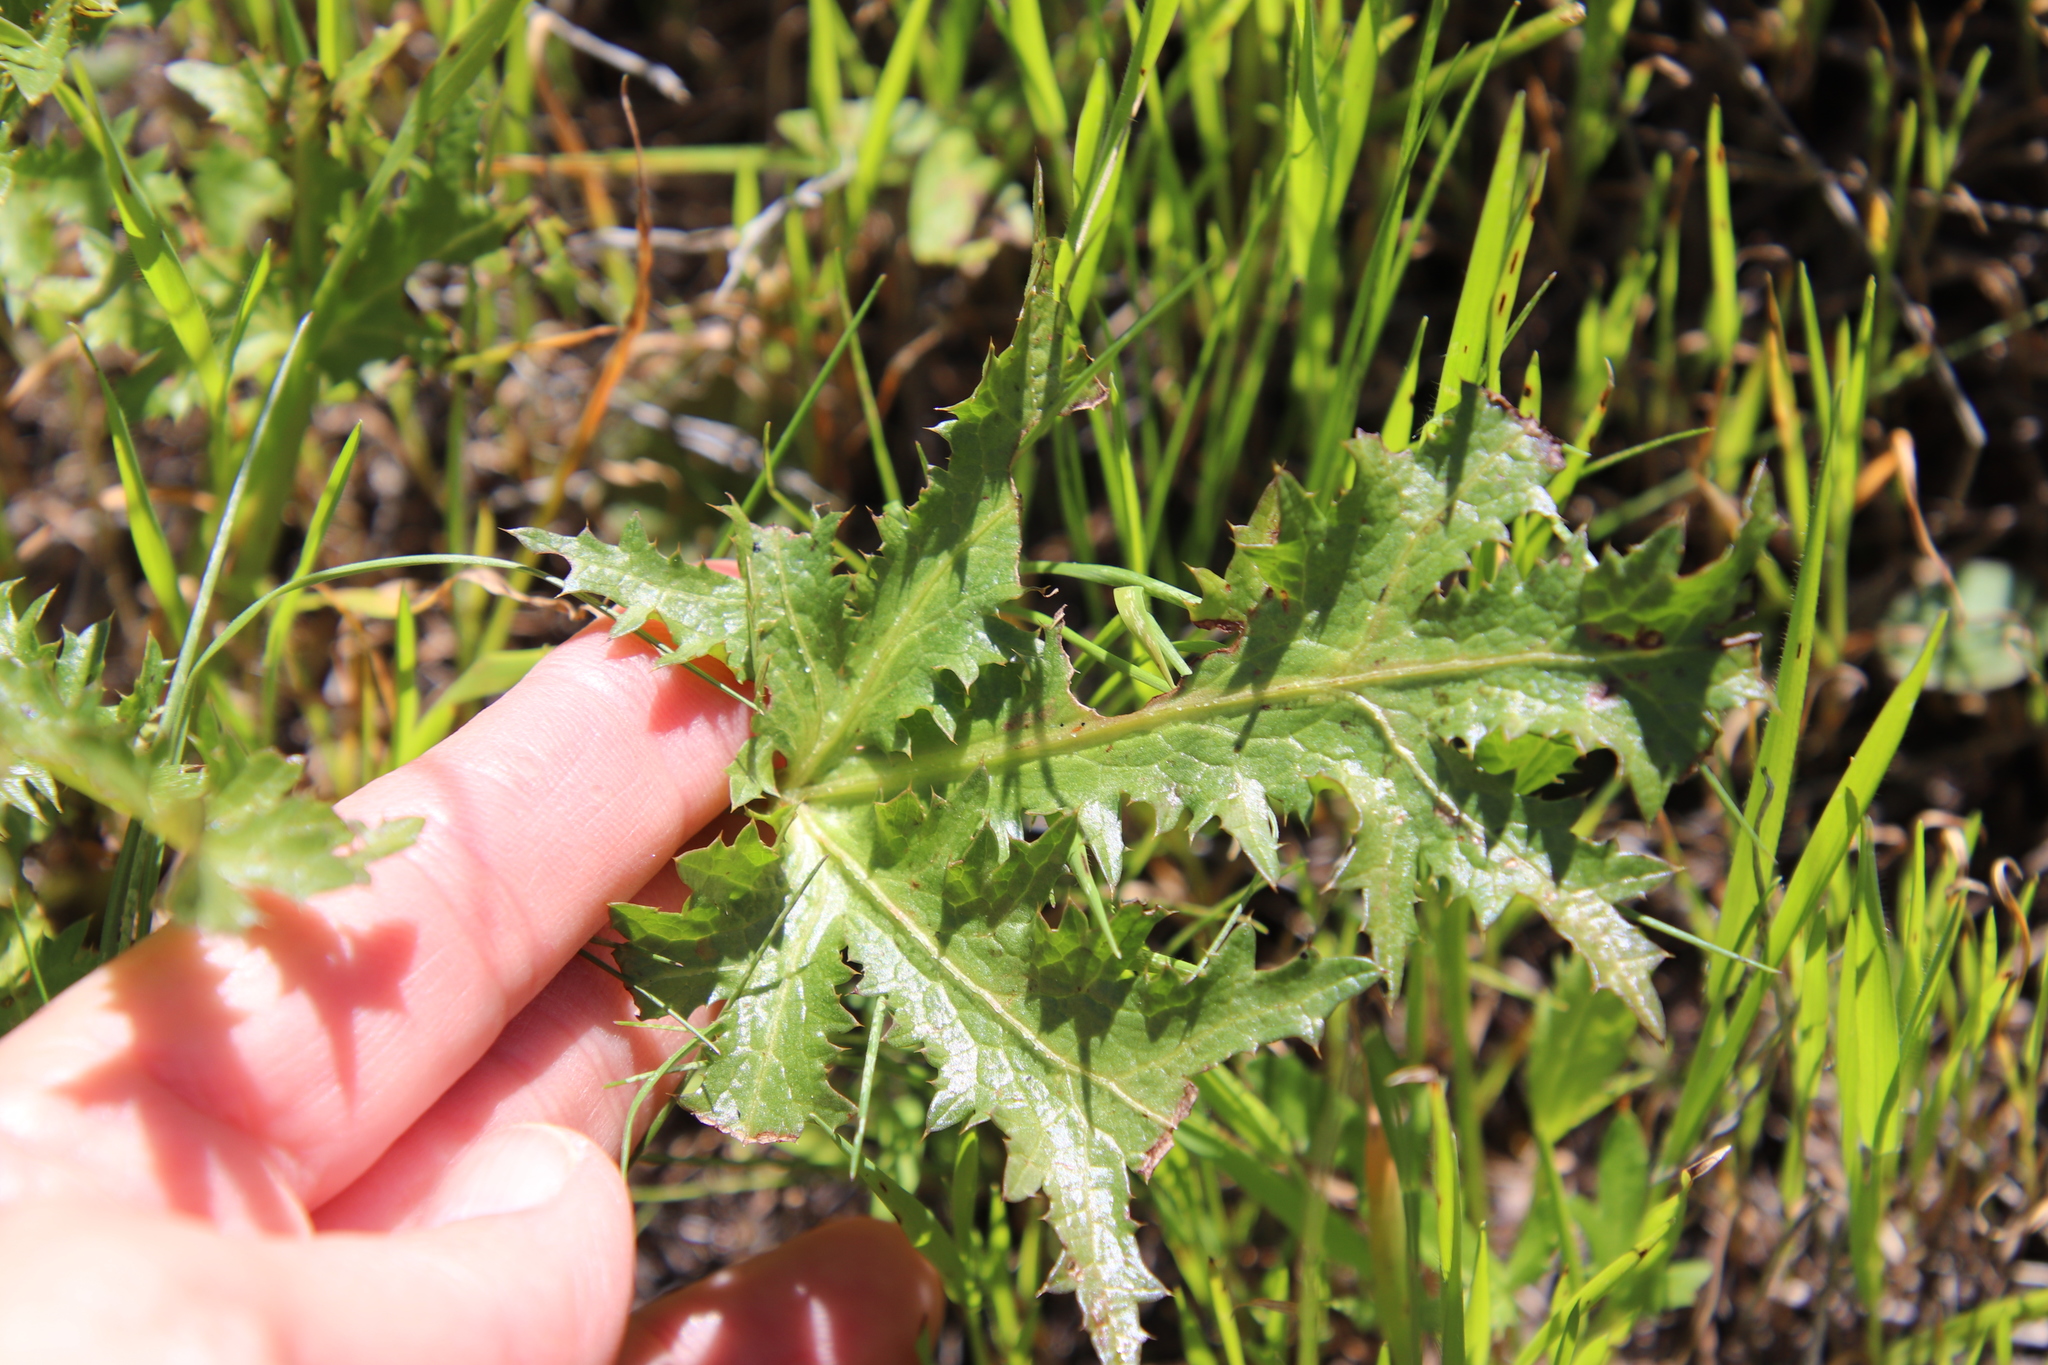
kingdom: Plantae
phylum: Tracheophyta
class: Magnoliopsida
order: Apiales
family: Apiaceae
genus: Sanicula
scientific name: Sanicula arguta
